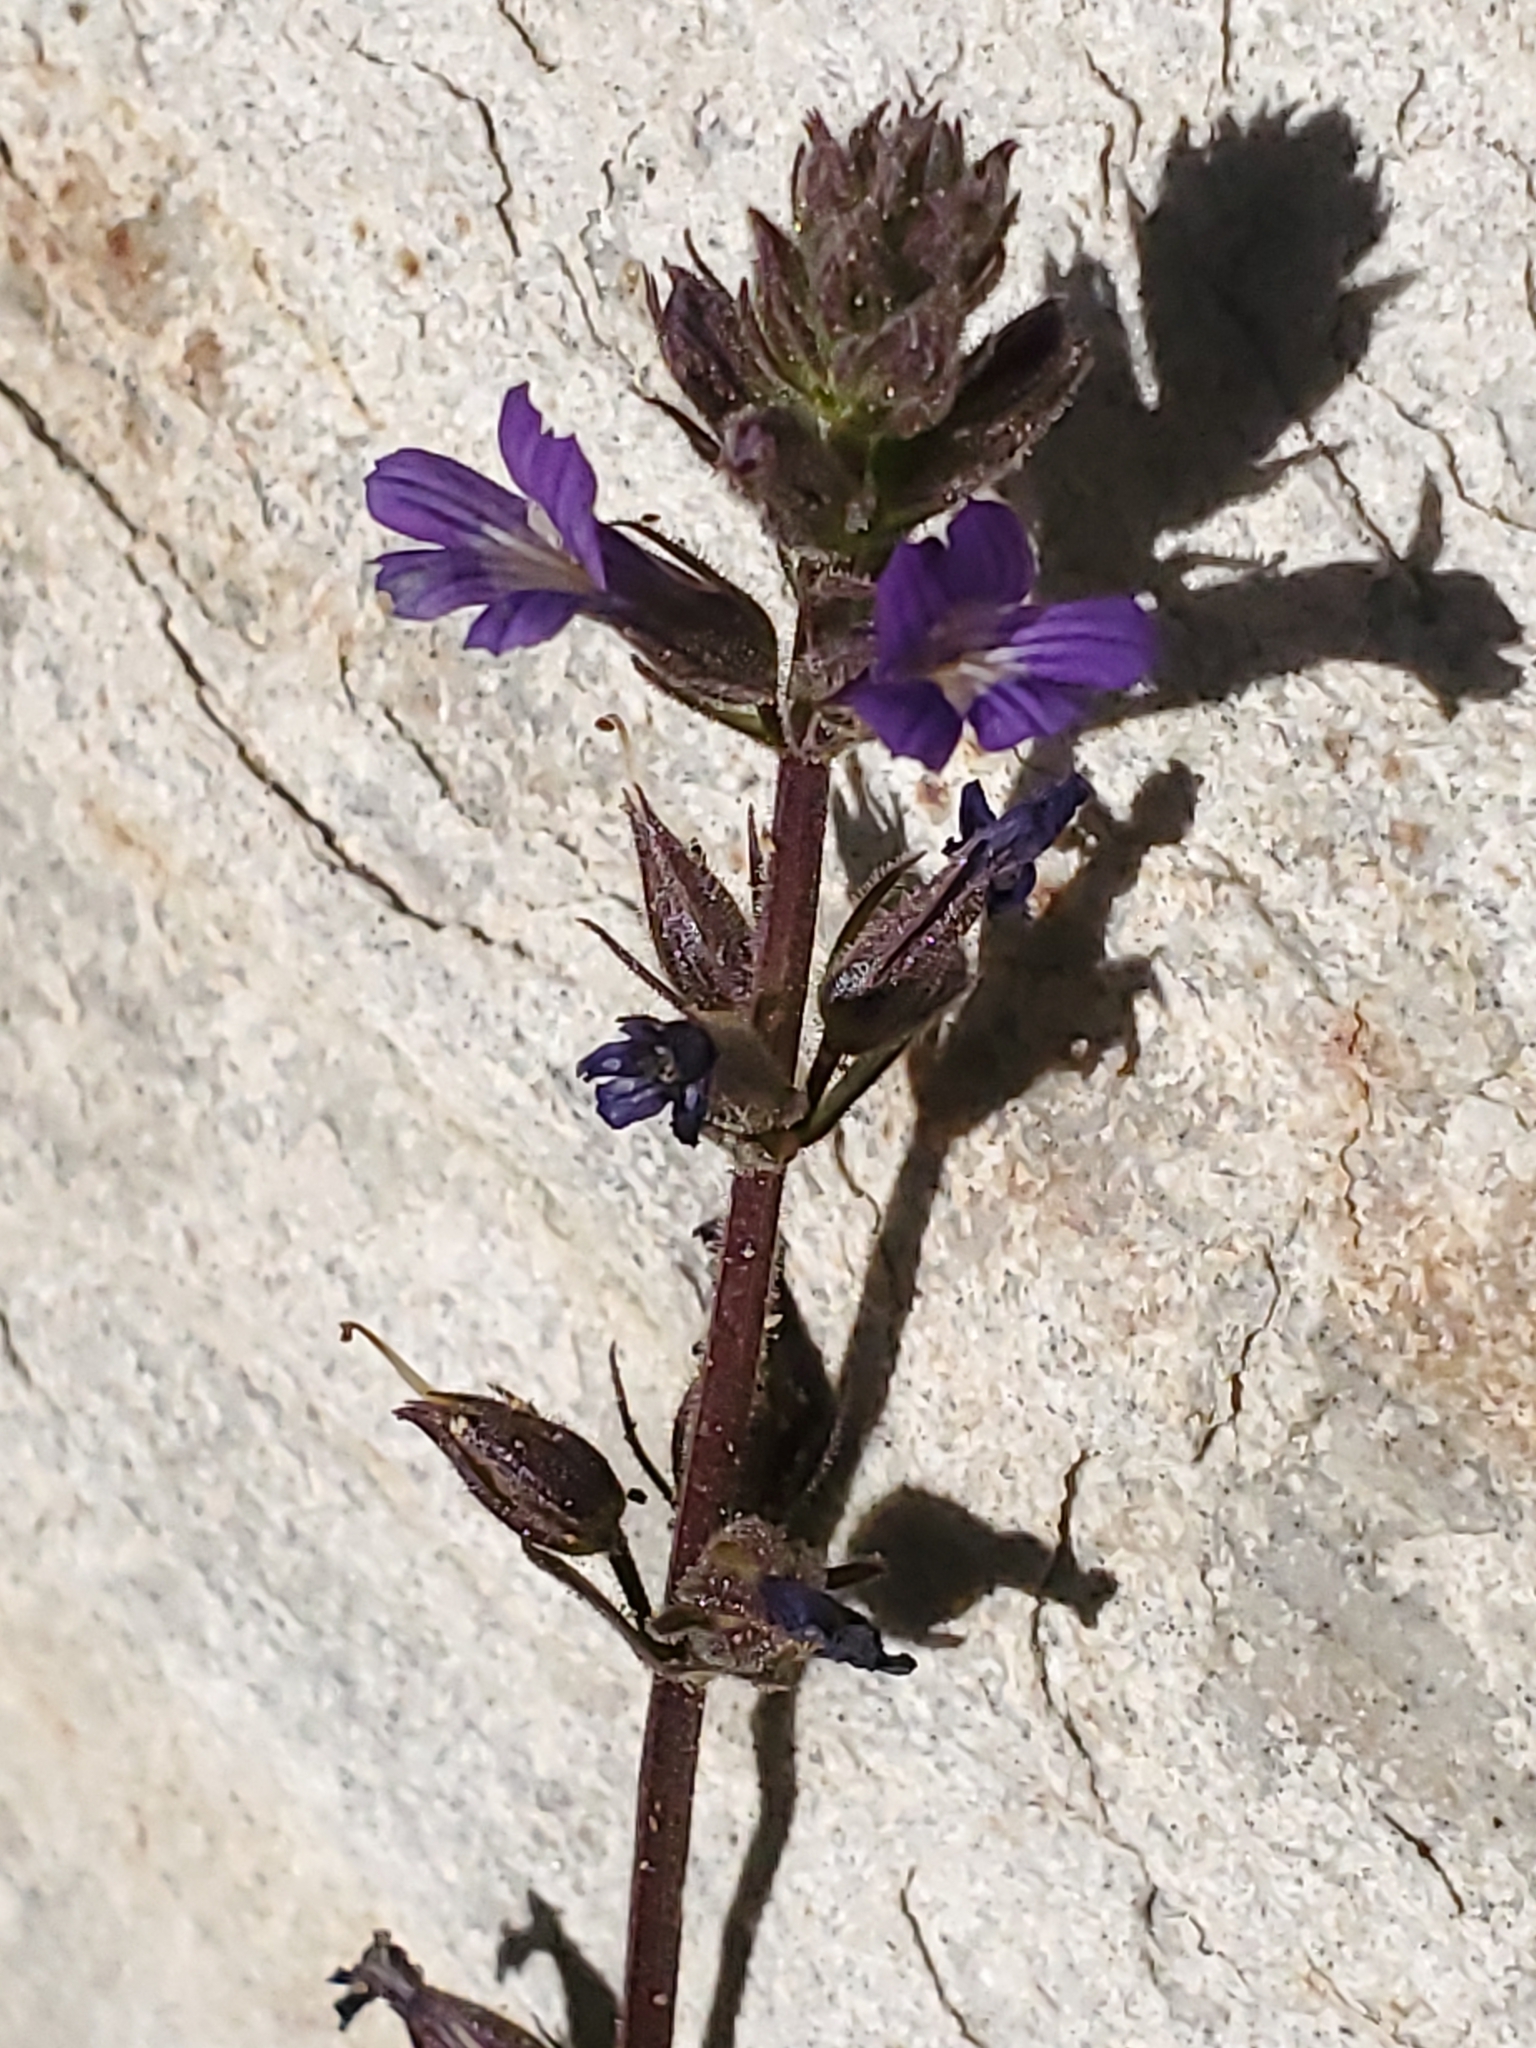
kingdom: Plantae
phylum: Tracheophyta
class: Magnoliopsida
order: Lamiales
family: Plantaginaceae
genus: Stemodia
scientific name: Stemodia durantifolia
